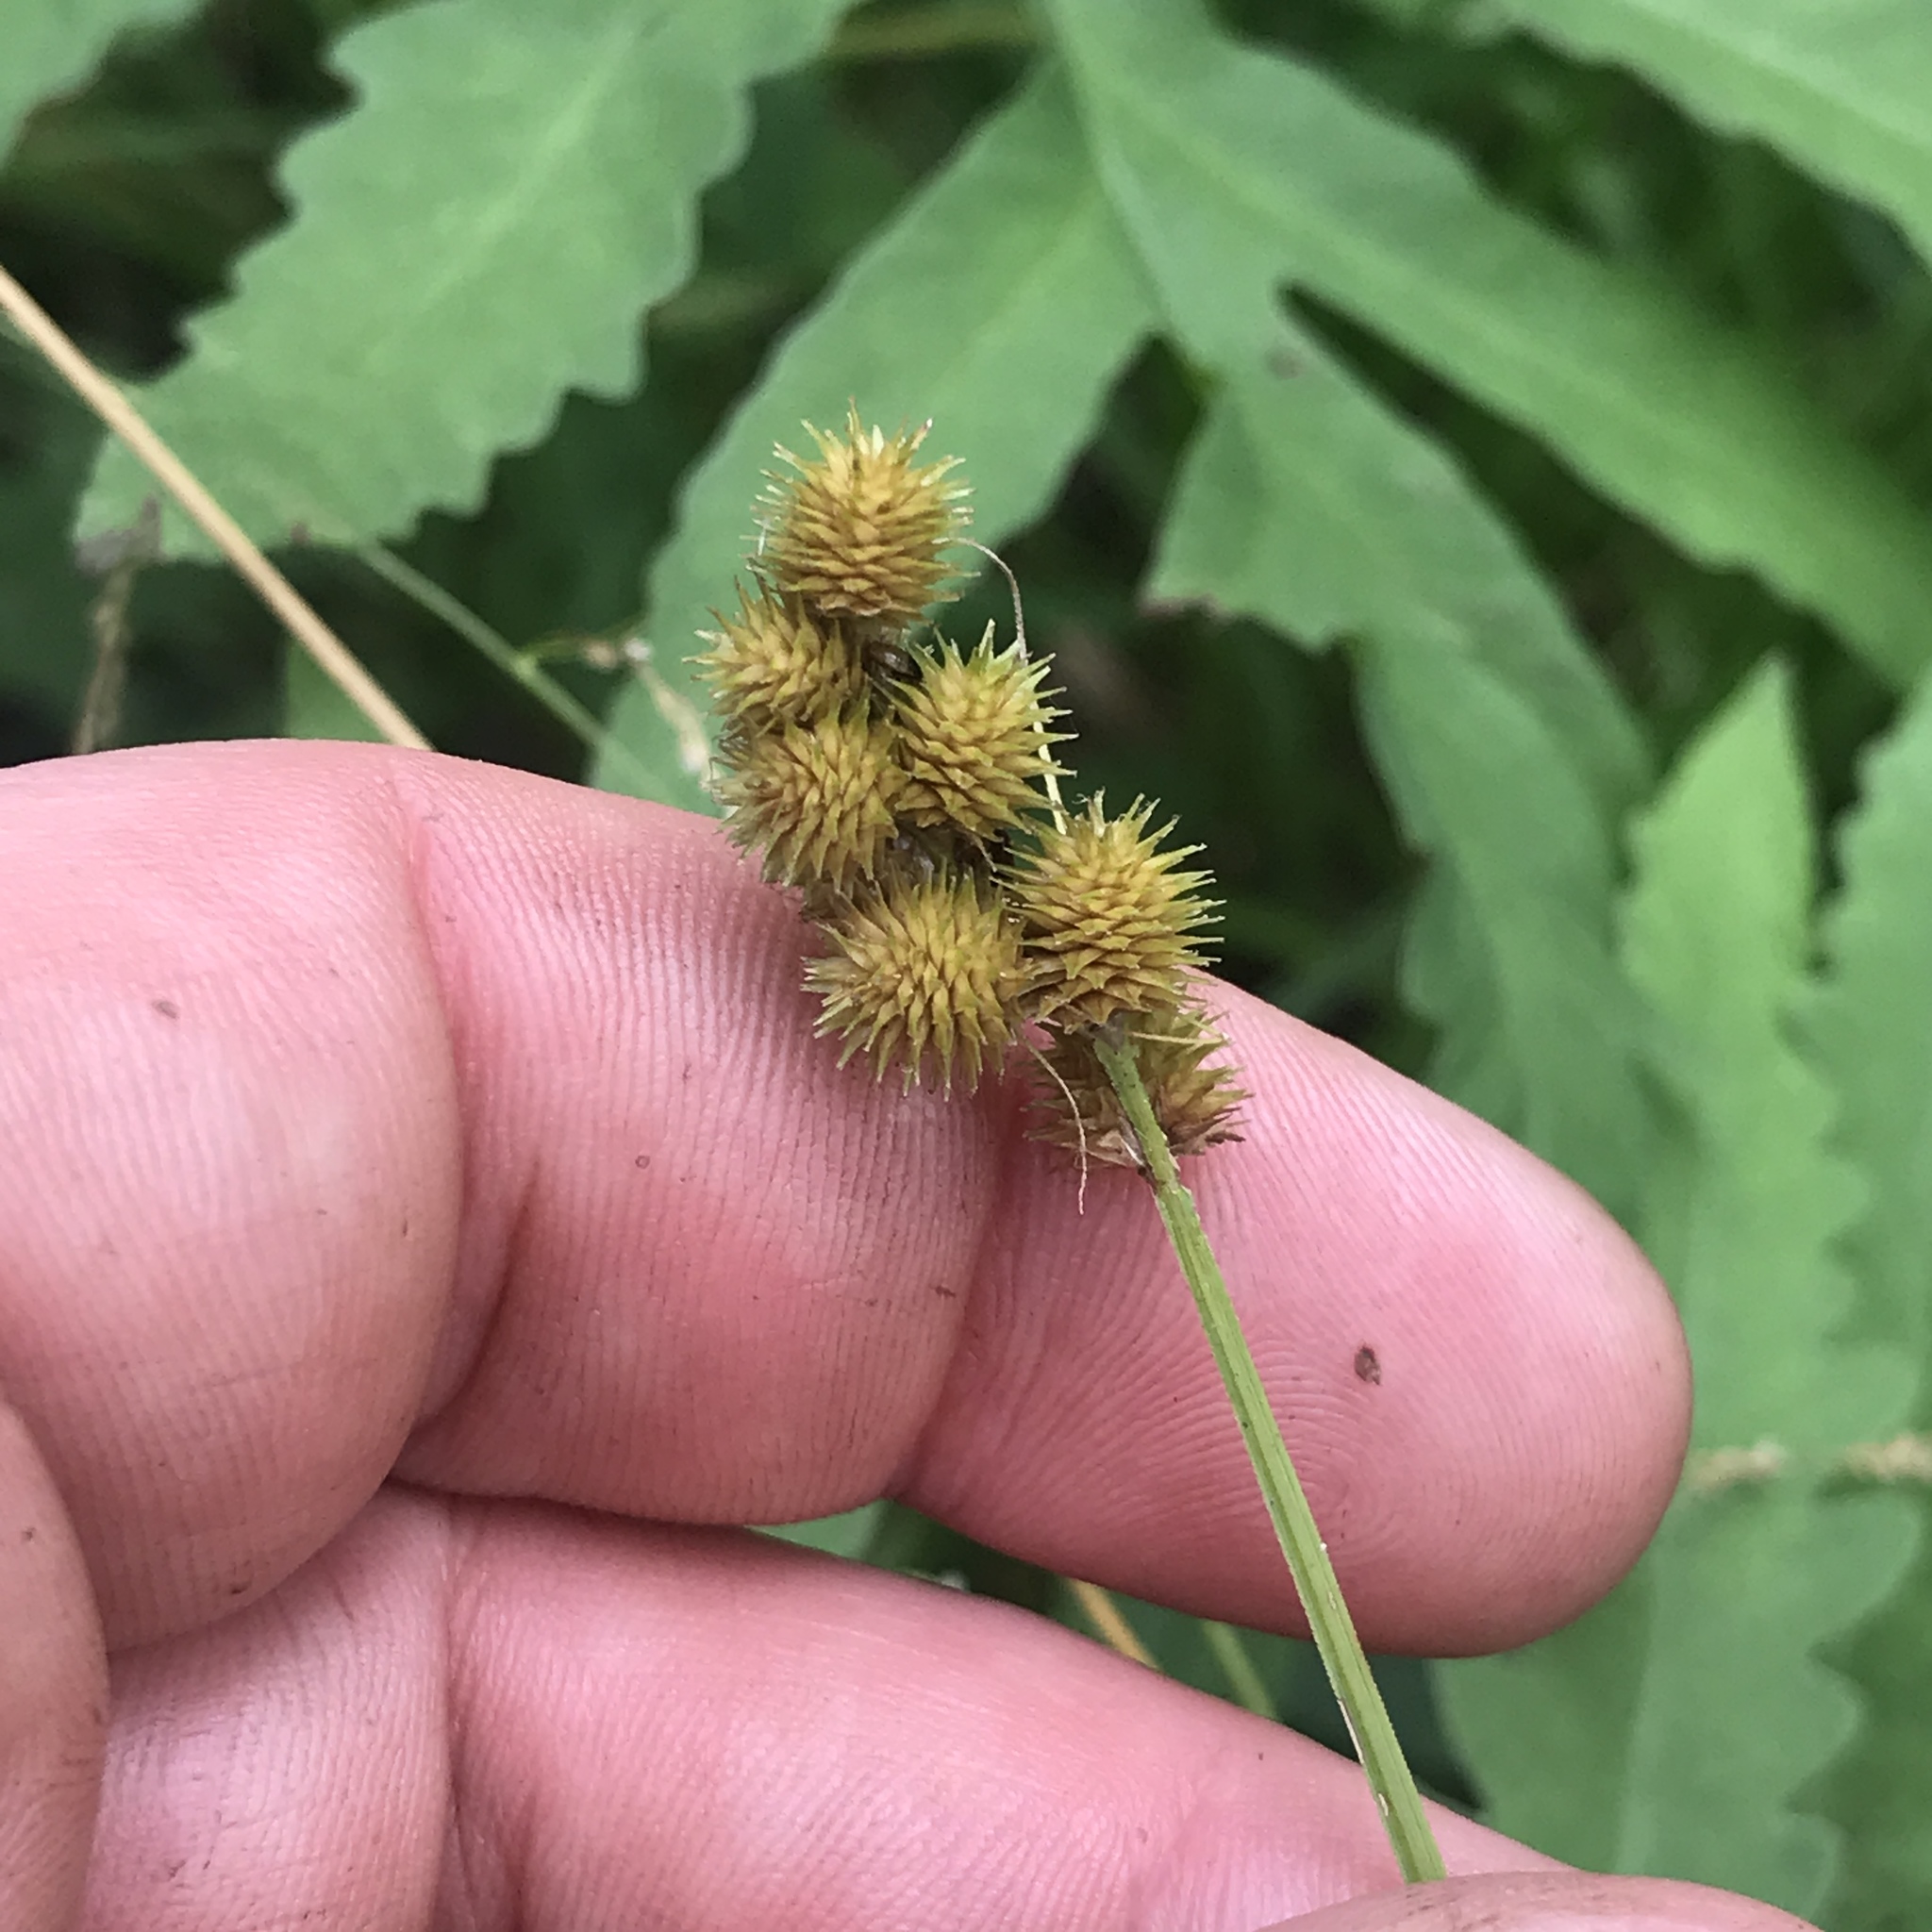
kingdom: Plantae
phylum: Tracheophyta
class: Liliopsida
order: Poales
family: Cyperaceae
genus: Carex
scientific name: Carex cristatella
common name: Crested oval sedge
